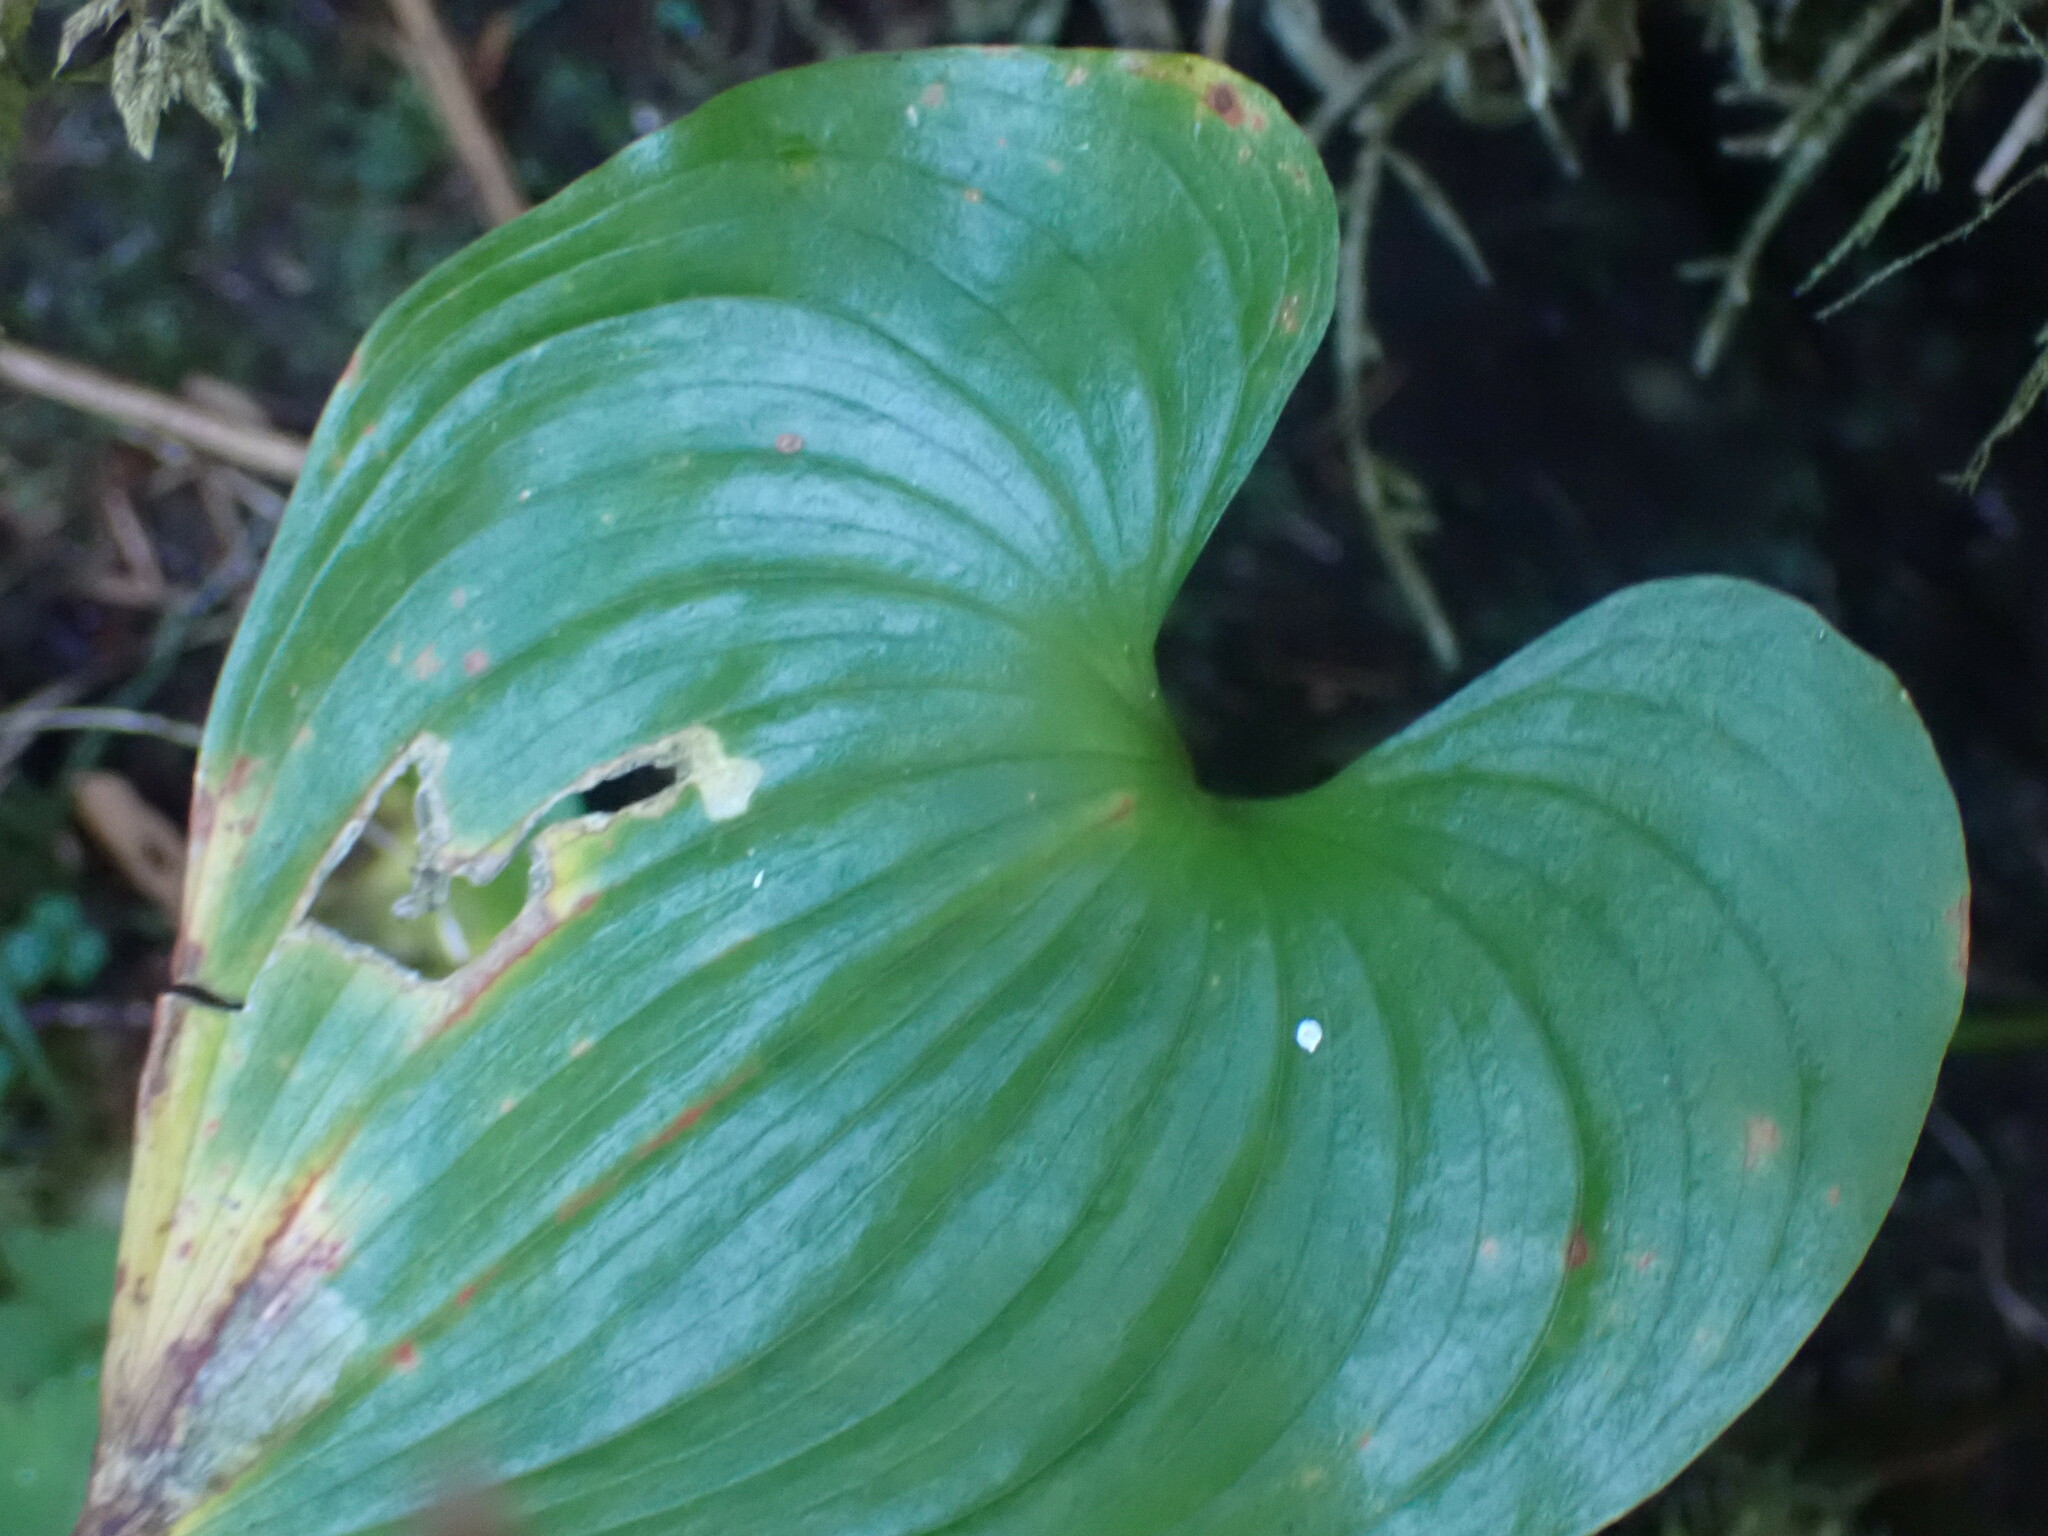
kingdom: Plantae
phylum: Tracheophyta
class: Liliopsida
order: Asparagales
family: Asparagaceae
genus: Maianthemum
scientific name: Maianthemum dilatatum
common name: False lily-of-the-valley
